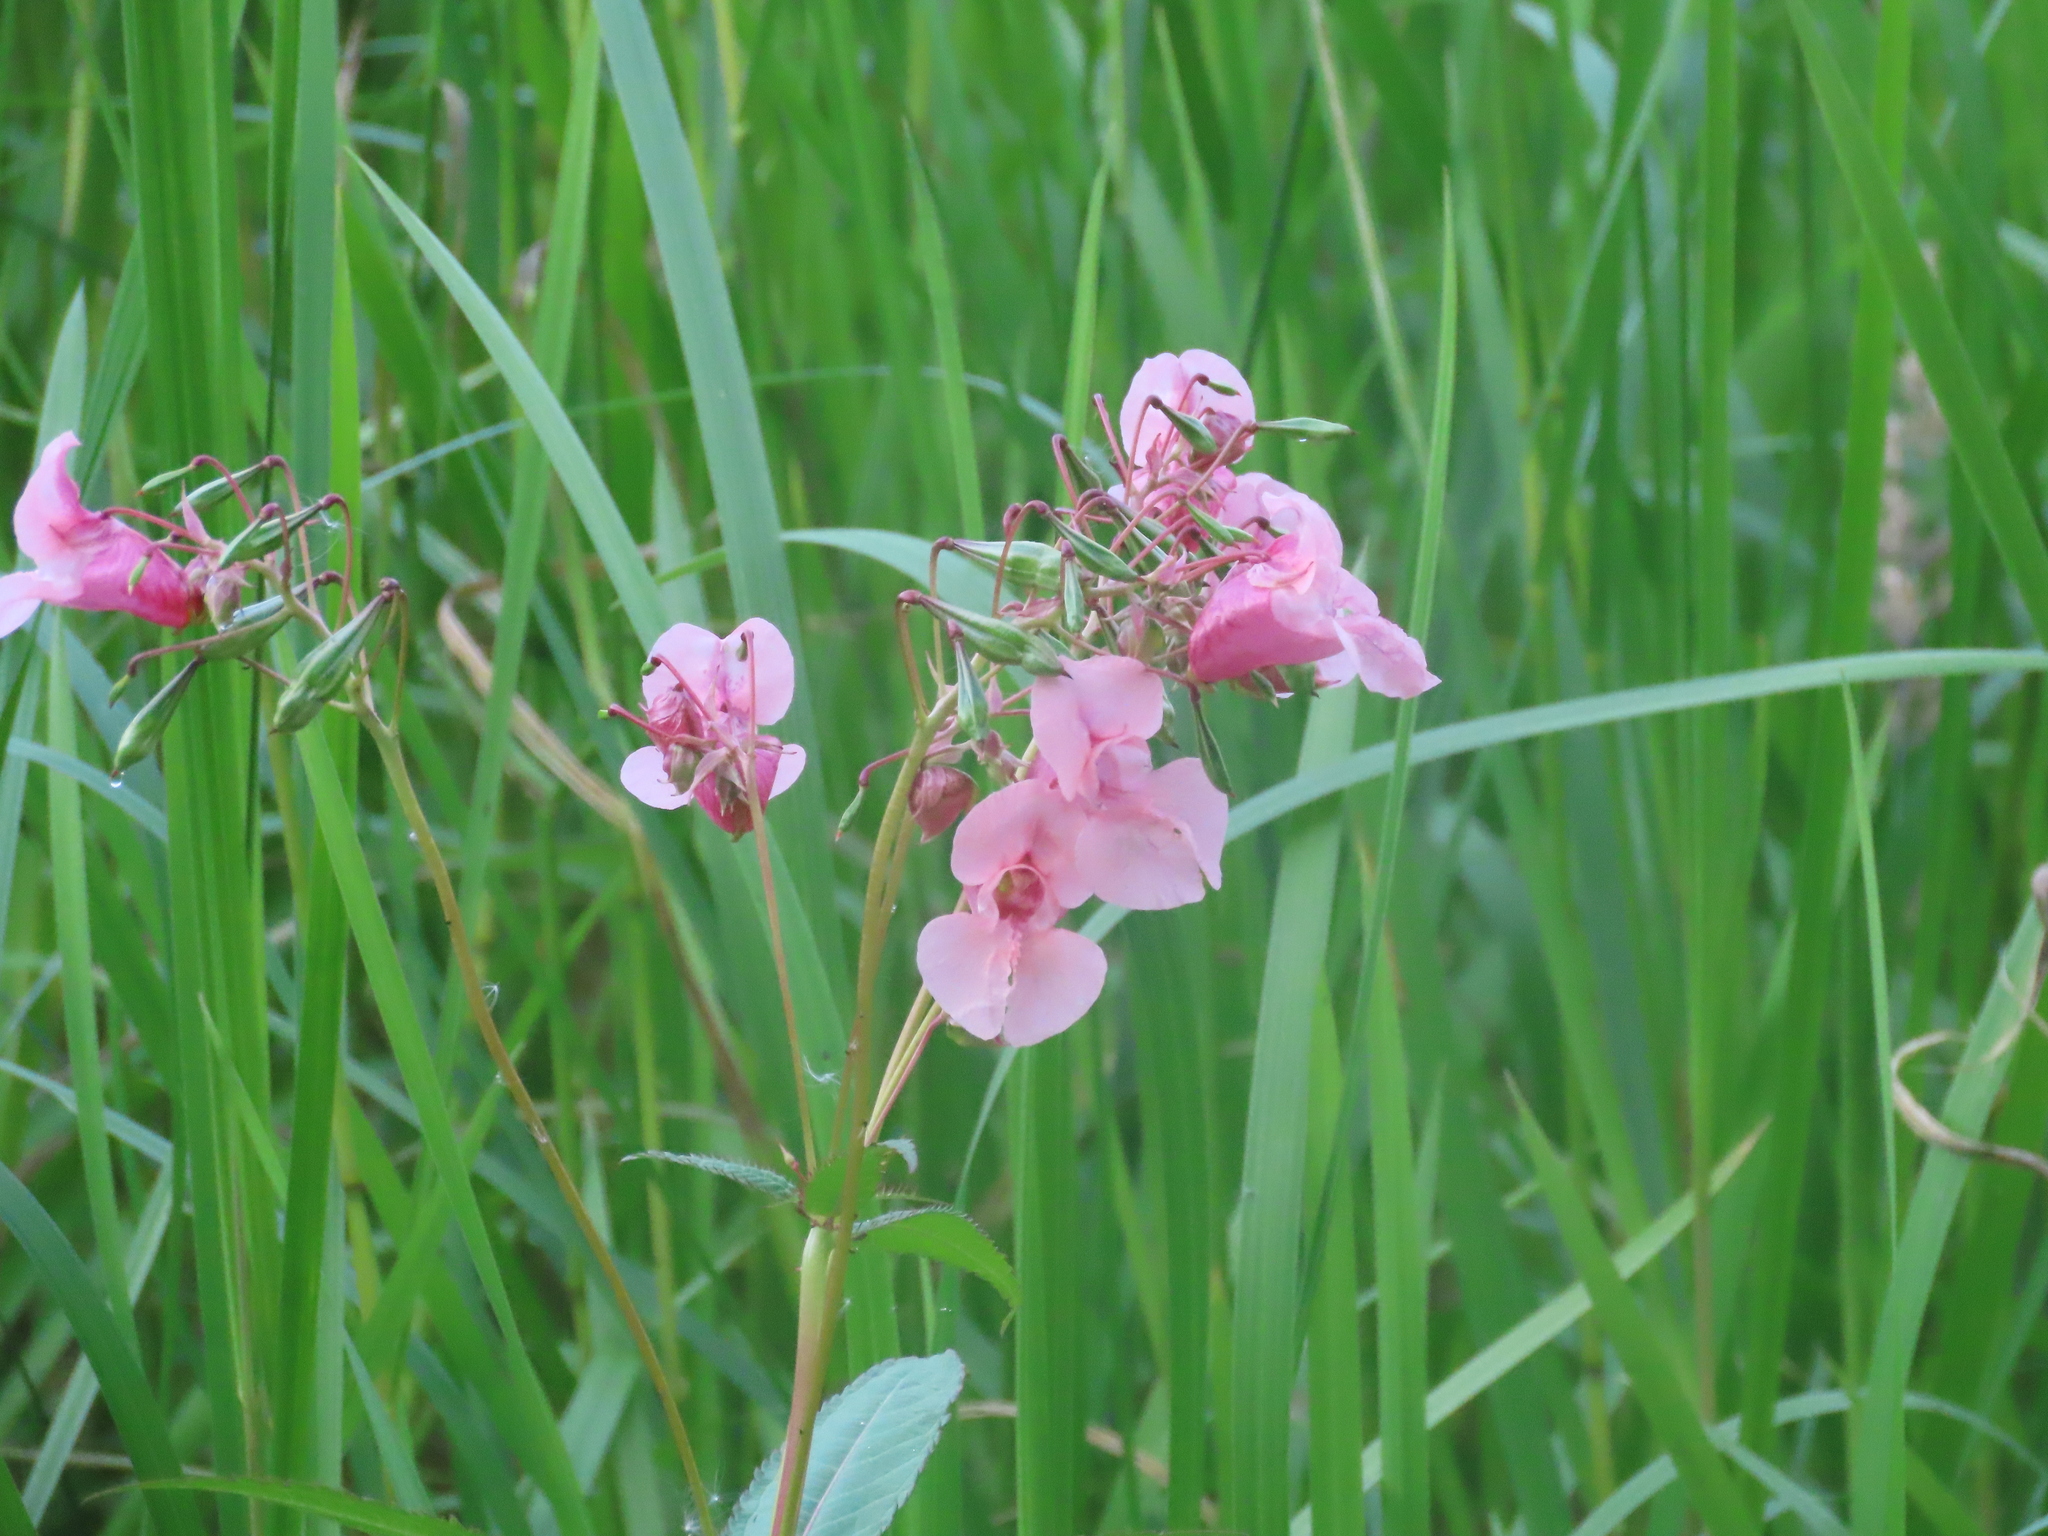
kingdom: Plantae
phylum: Tracheophyta
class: Magnoliopsida
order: Ericales
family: Balsaminaceae
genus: Impatiens
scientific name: Impatiens glandulifera
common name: Himalayan balsam
